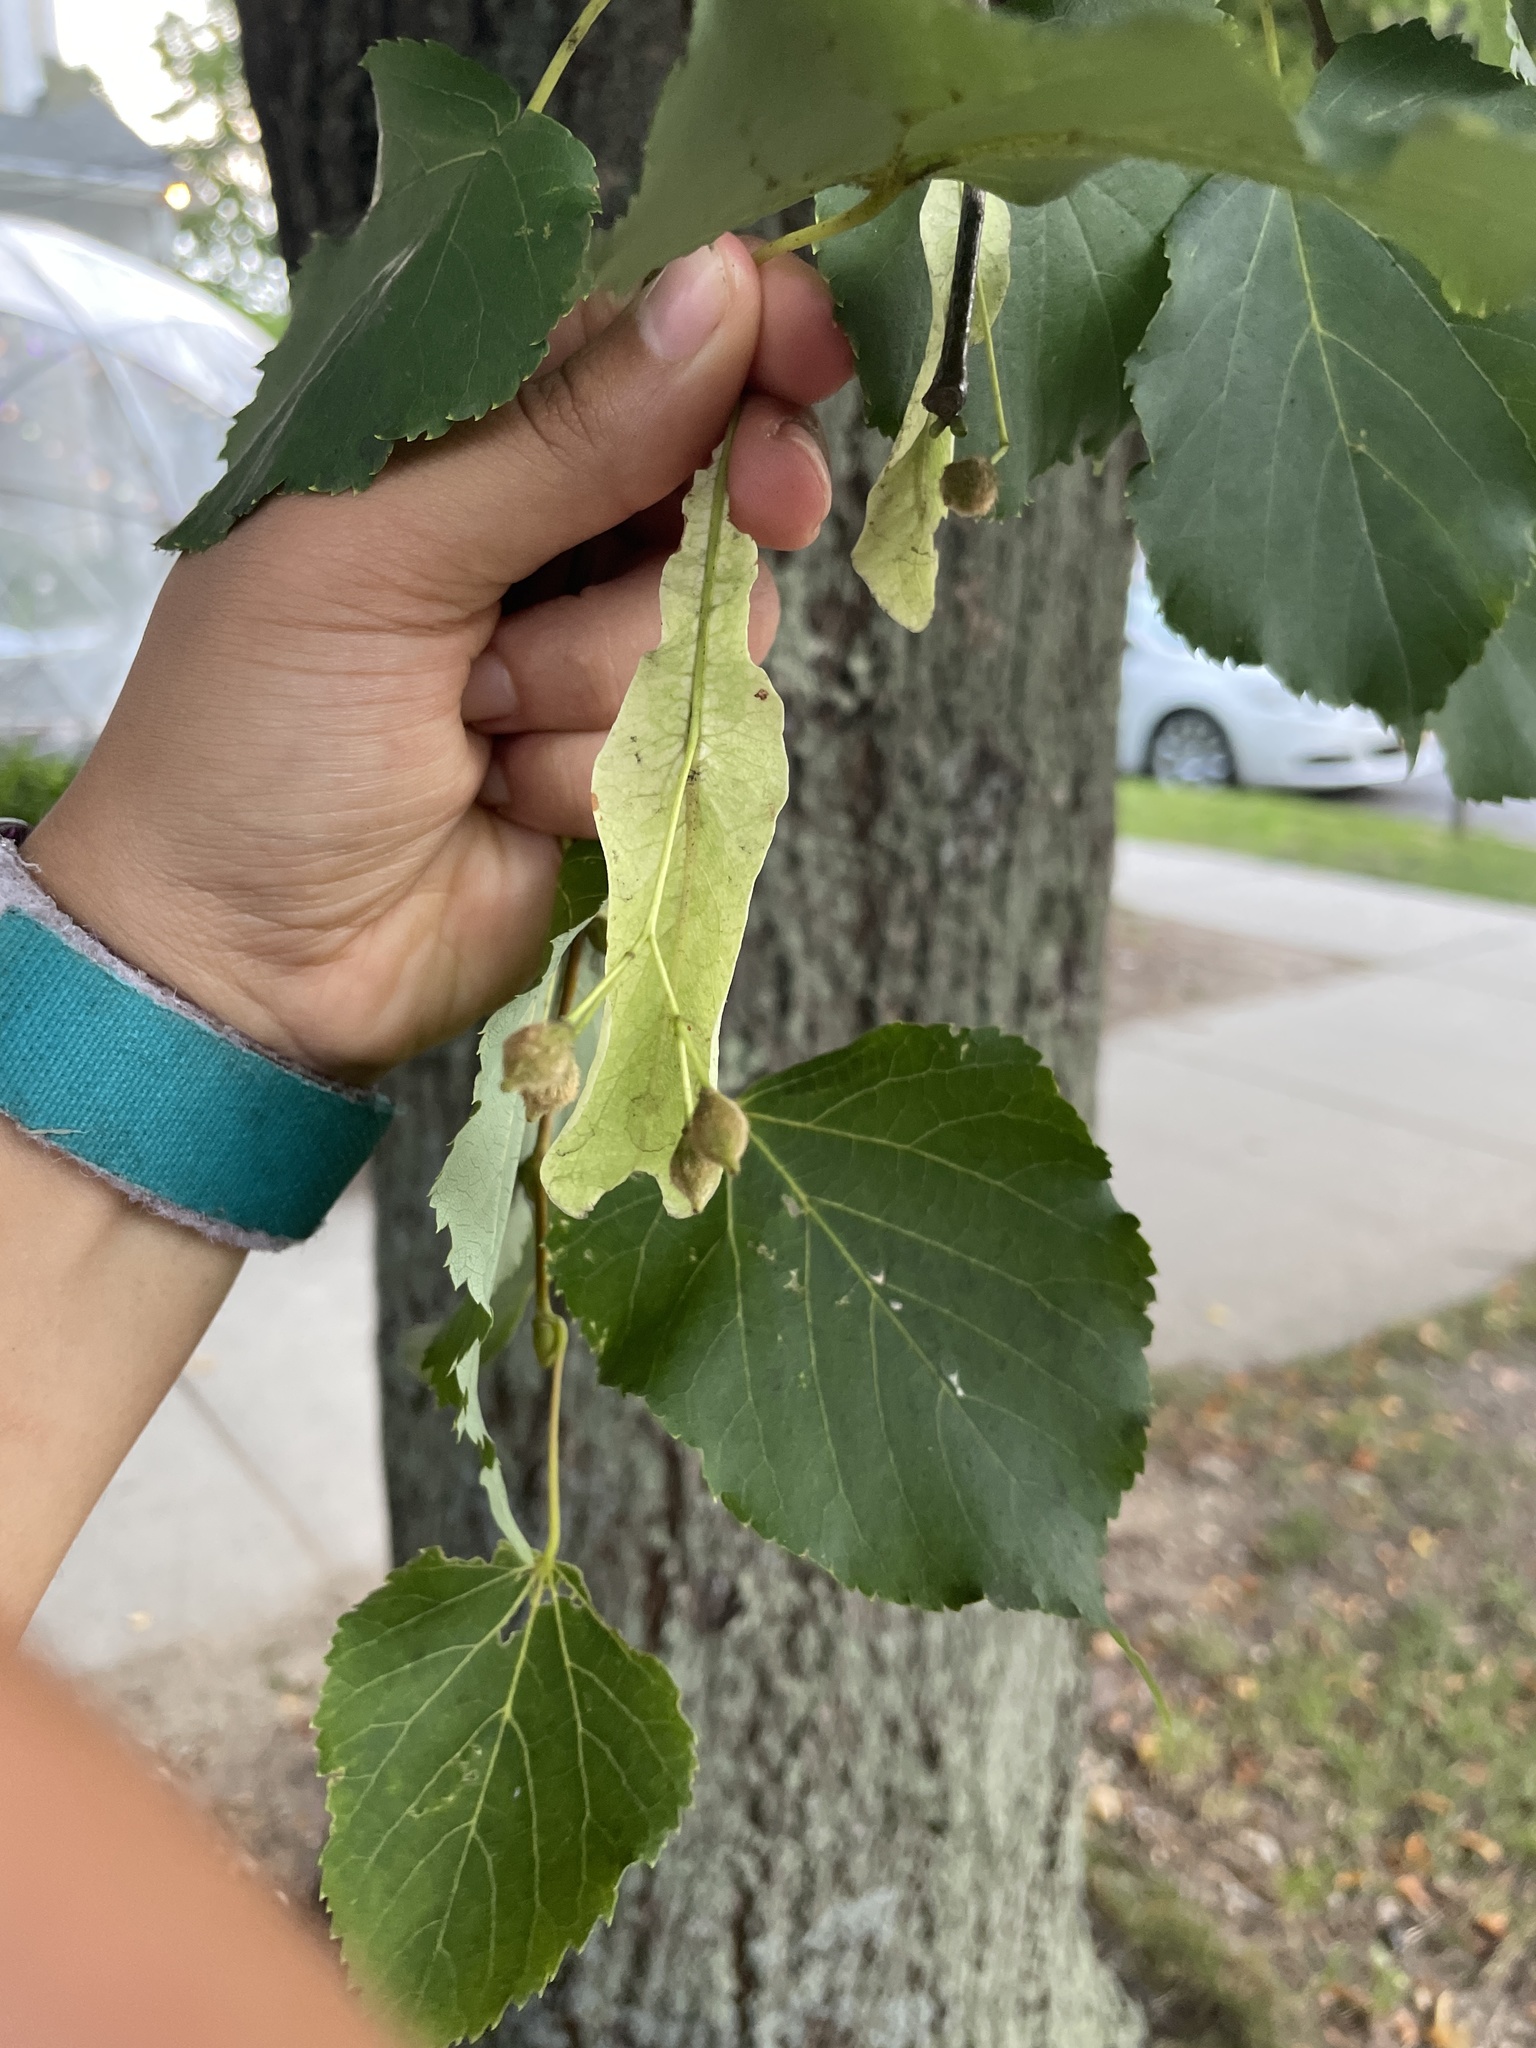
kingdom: Plantae
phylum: Tracheophyta
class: Magnoliopsida
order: Malvales
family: Malvaceae
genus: Tilia
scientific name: Tilia cordata
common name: Small-leaved lime
